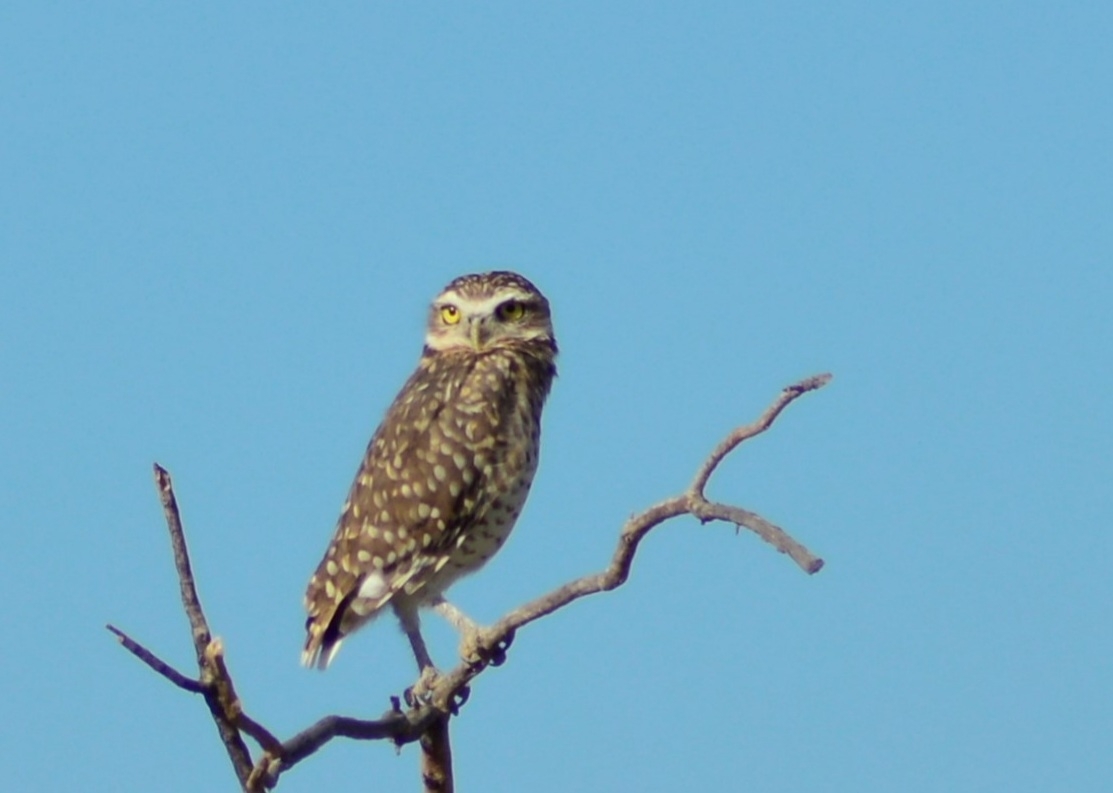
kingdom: Animalia
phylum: Chordata
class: Aves
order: Strigiformes
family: Strigidae
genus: Athene
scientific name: Athene cunicularia
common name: Burrowing owl
